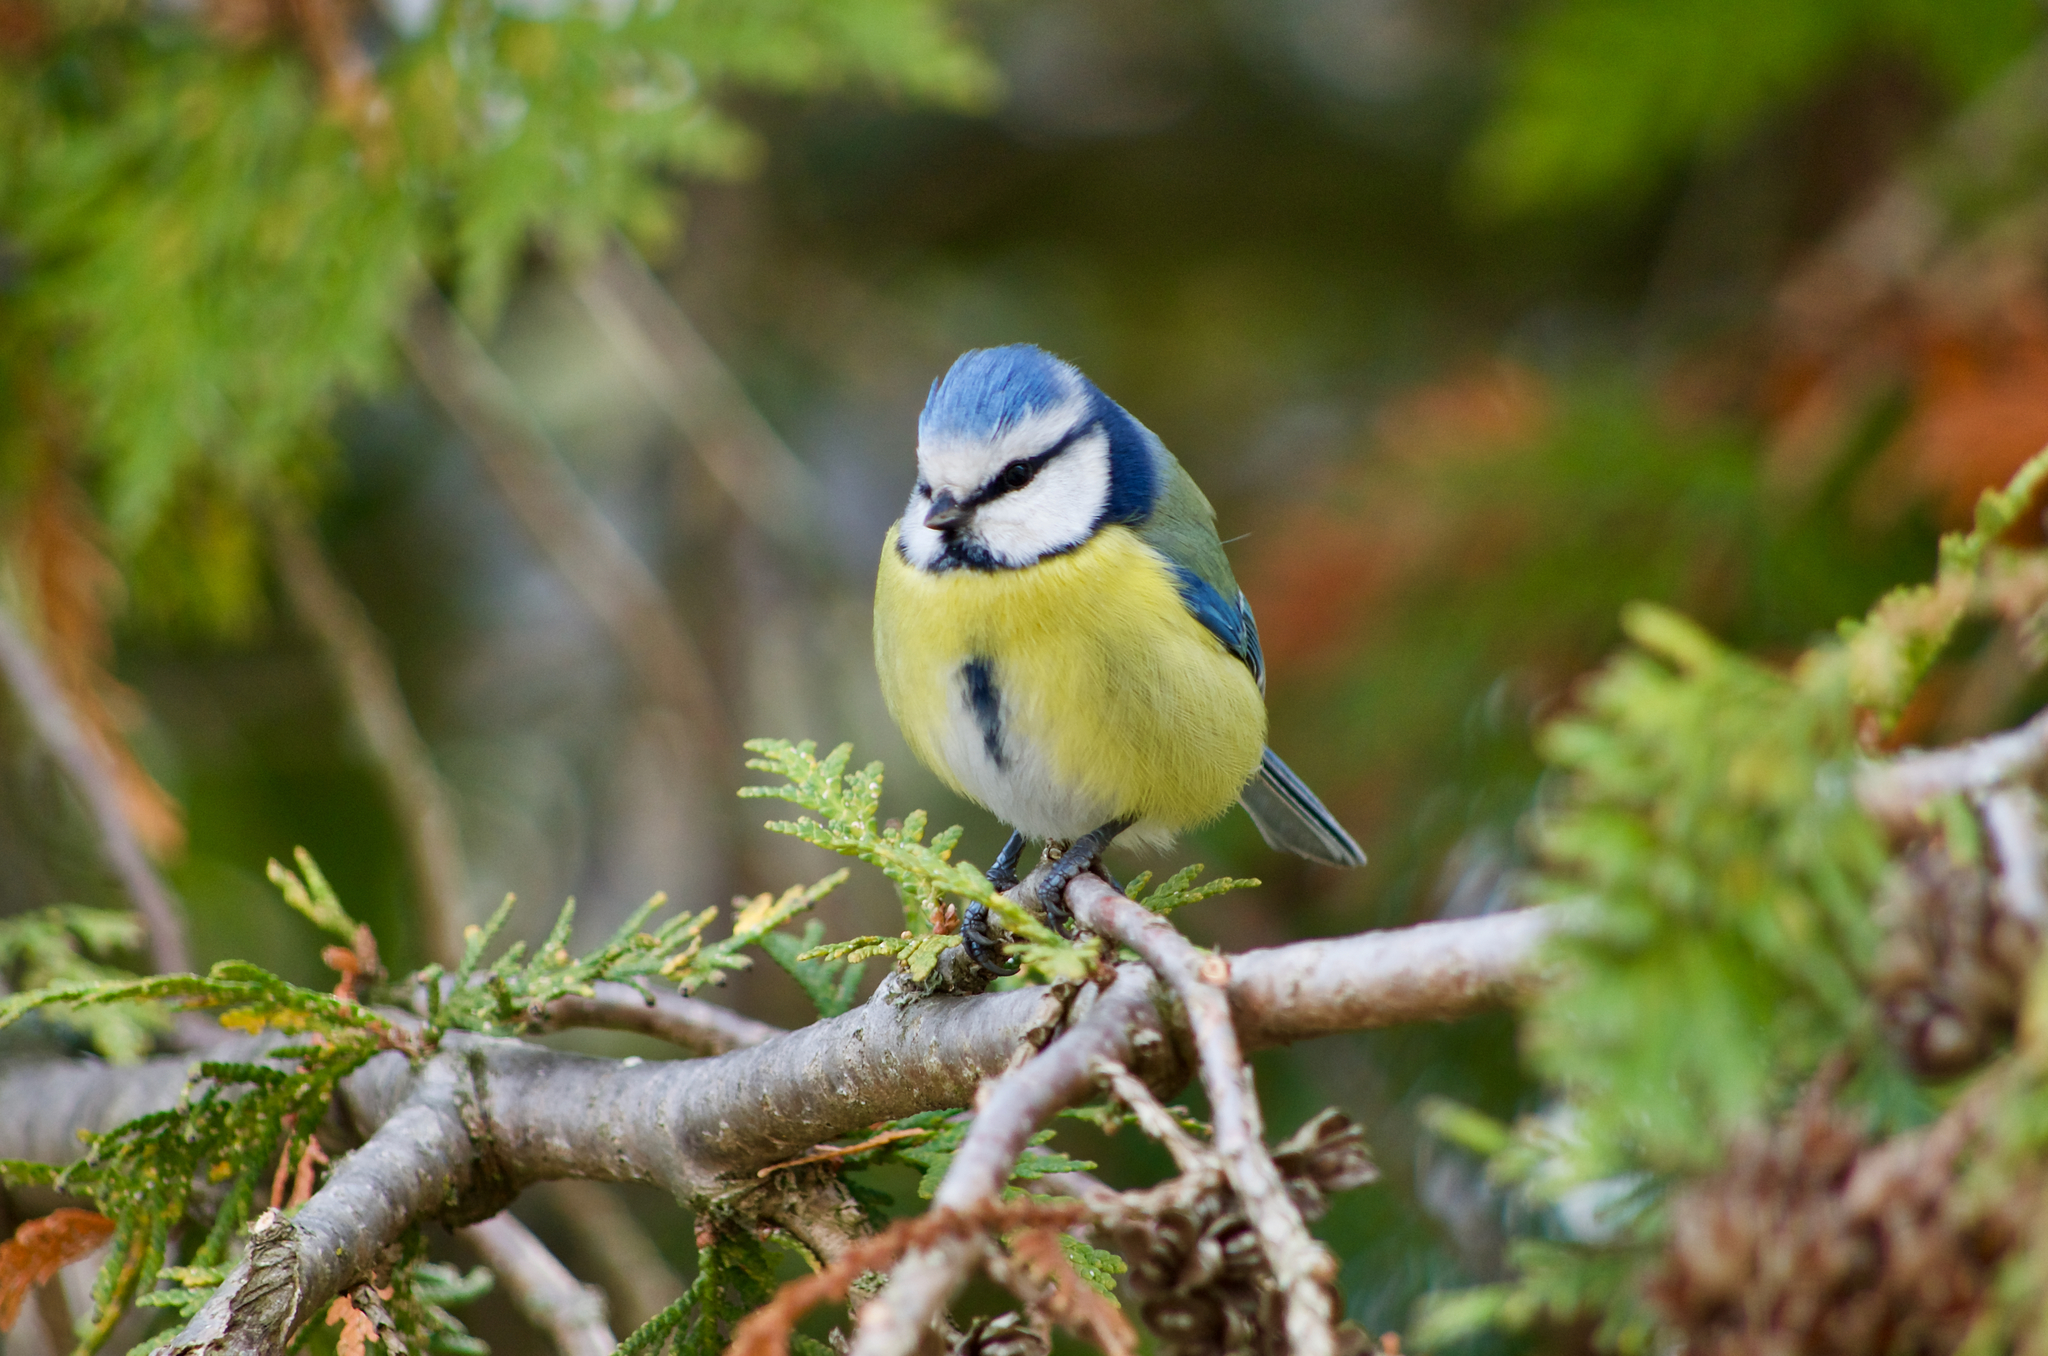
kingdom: Animalia
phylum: Chordata
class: Aves
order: Passeriformes
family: Paridae
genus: Cyanistes
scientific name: Cyanistes caeruleus
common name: Eurasian blue tit
